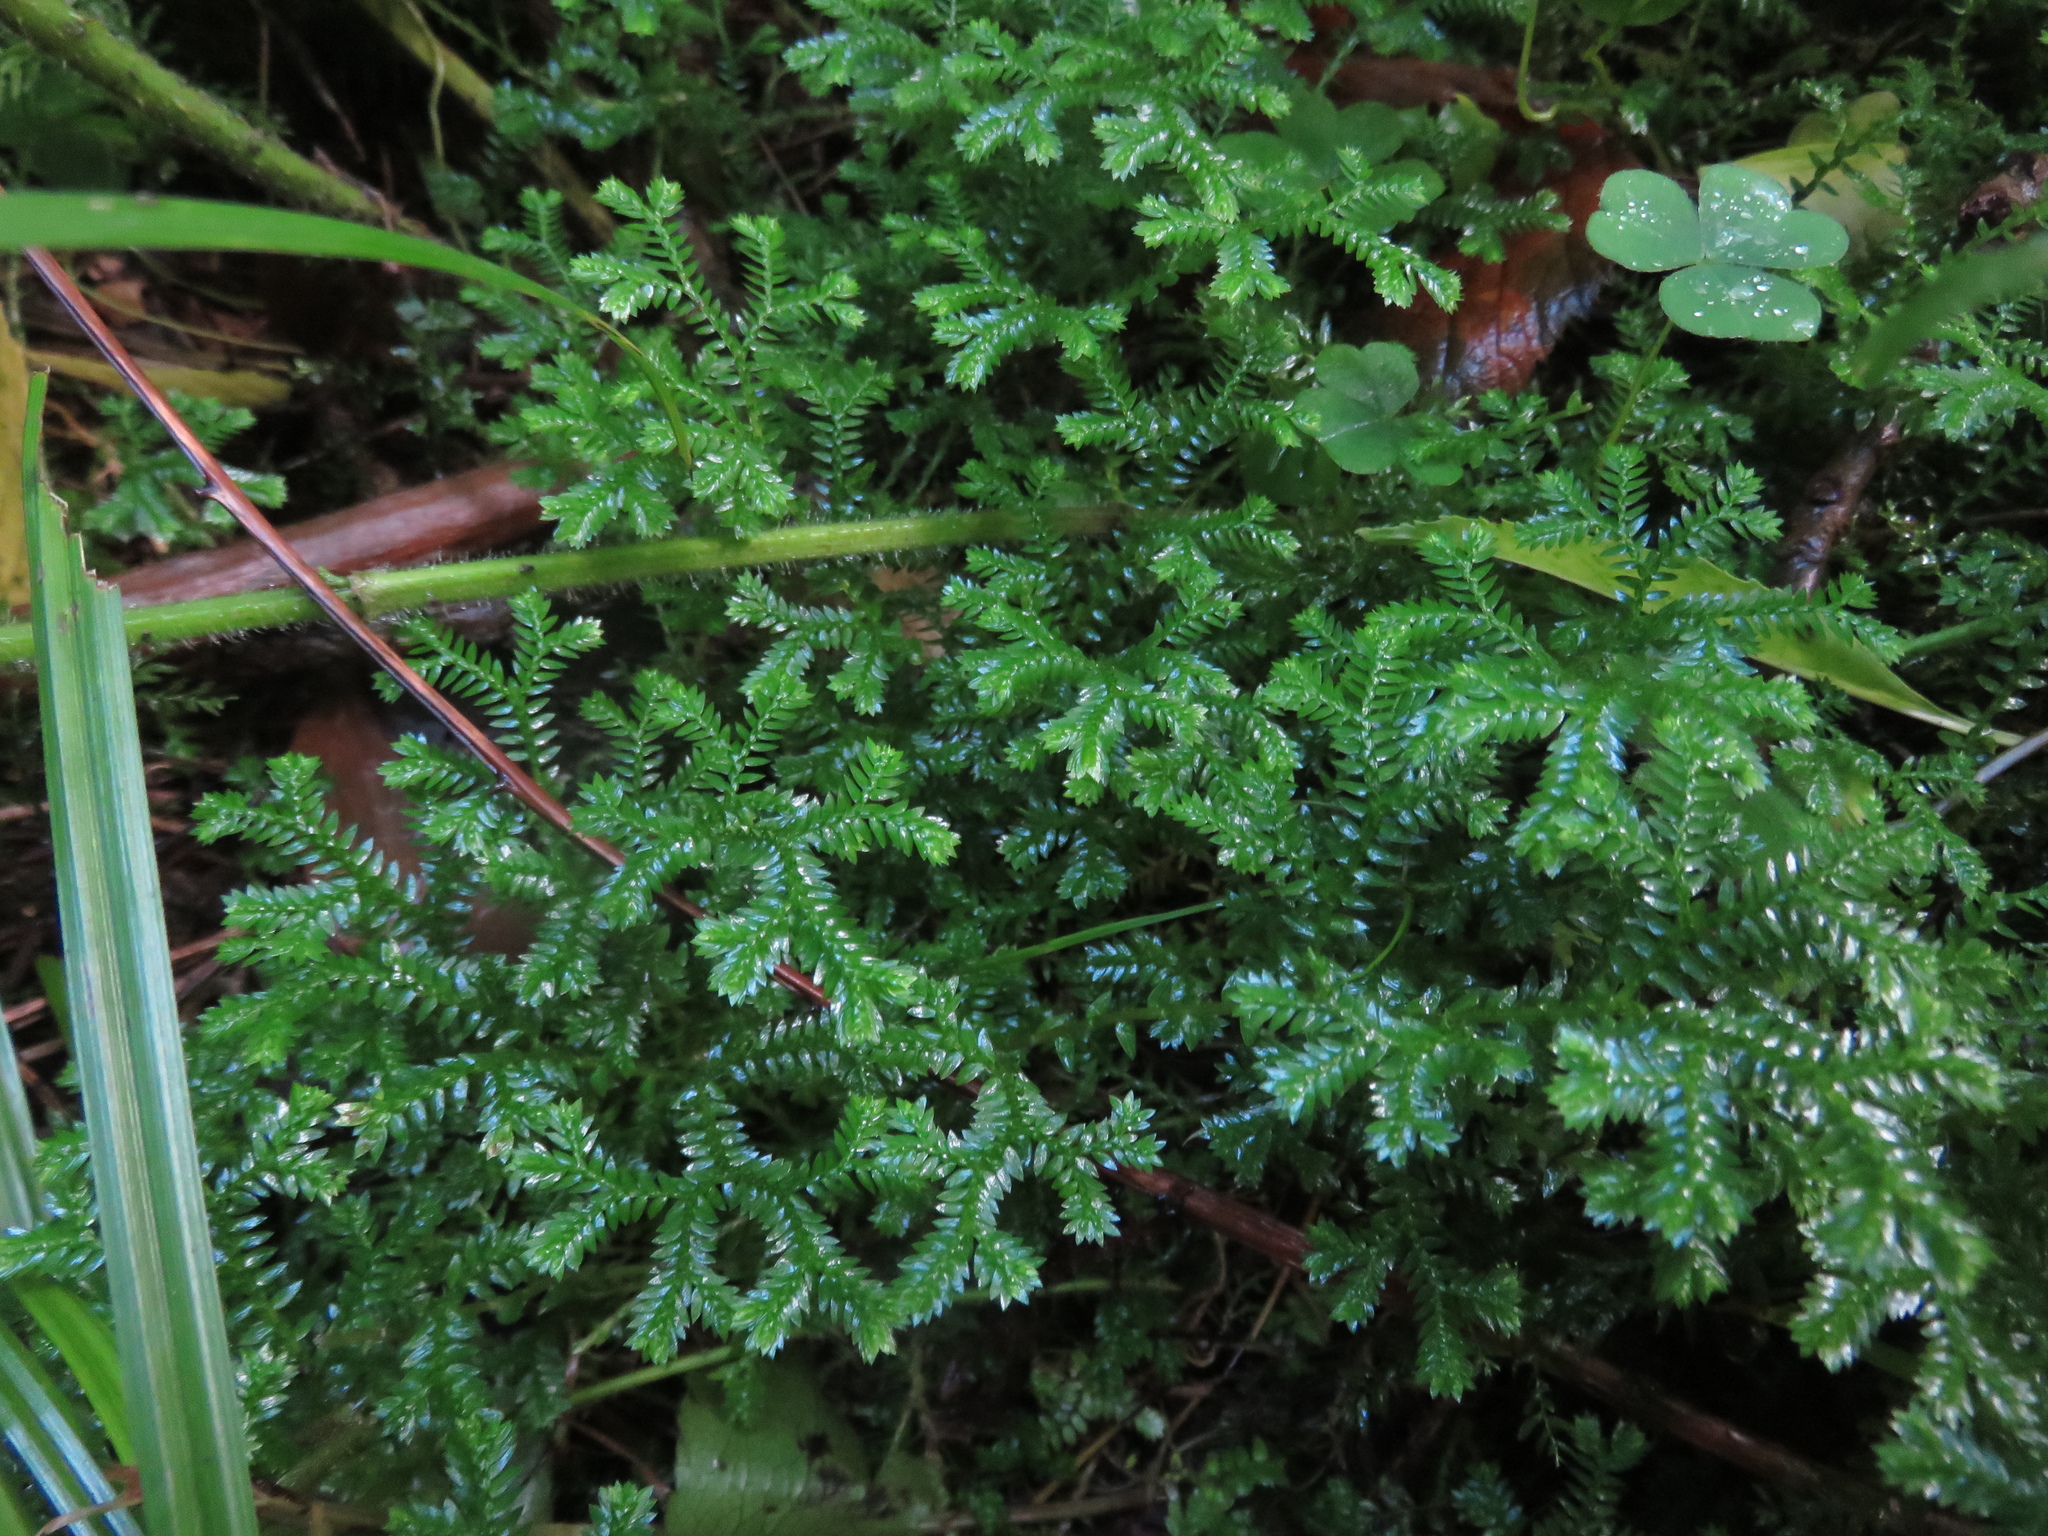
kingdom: Plantae
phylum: Tracheophyta
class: Lycopodiopsida
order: Selaginellales
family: Selaginellaceae
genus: Selaginella
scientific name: Selaginella kraussiana
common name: Krauss' spikemoss
